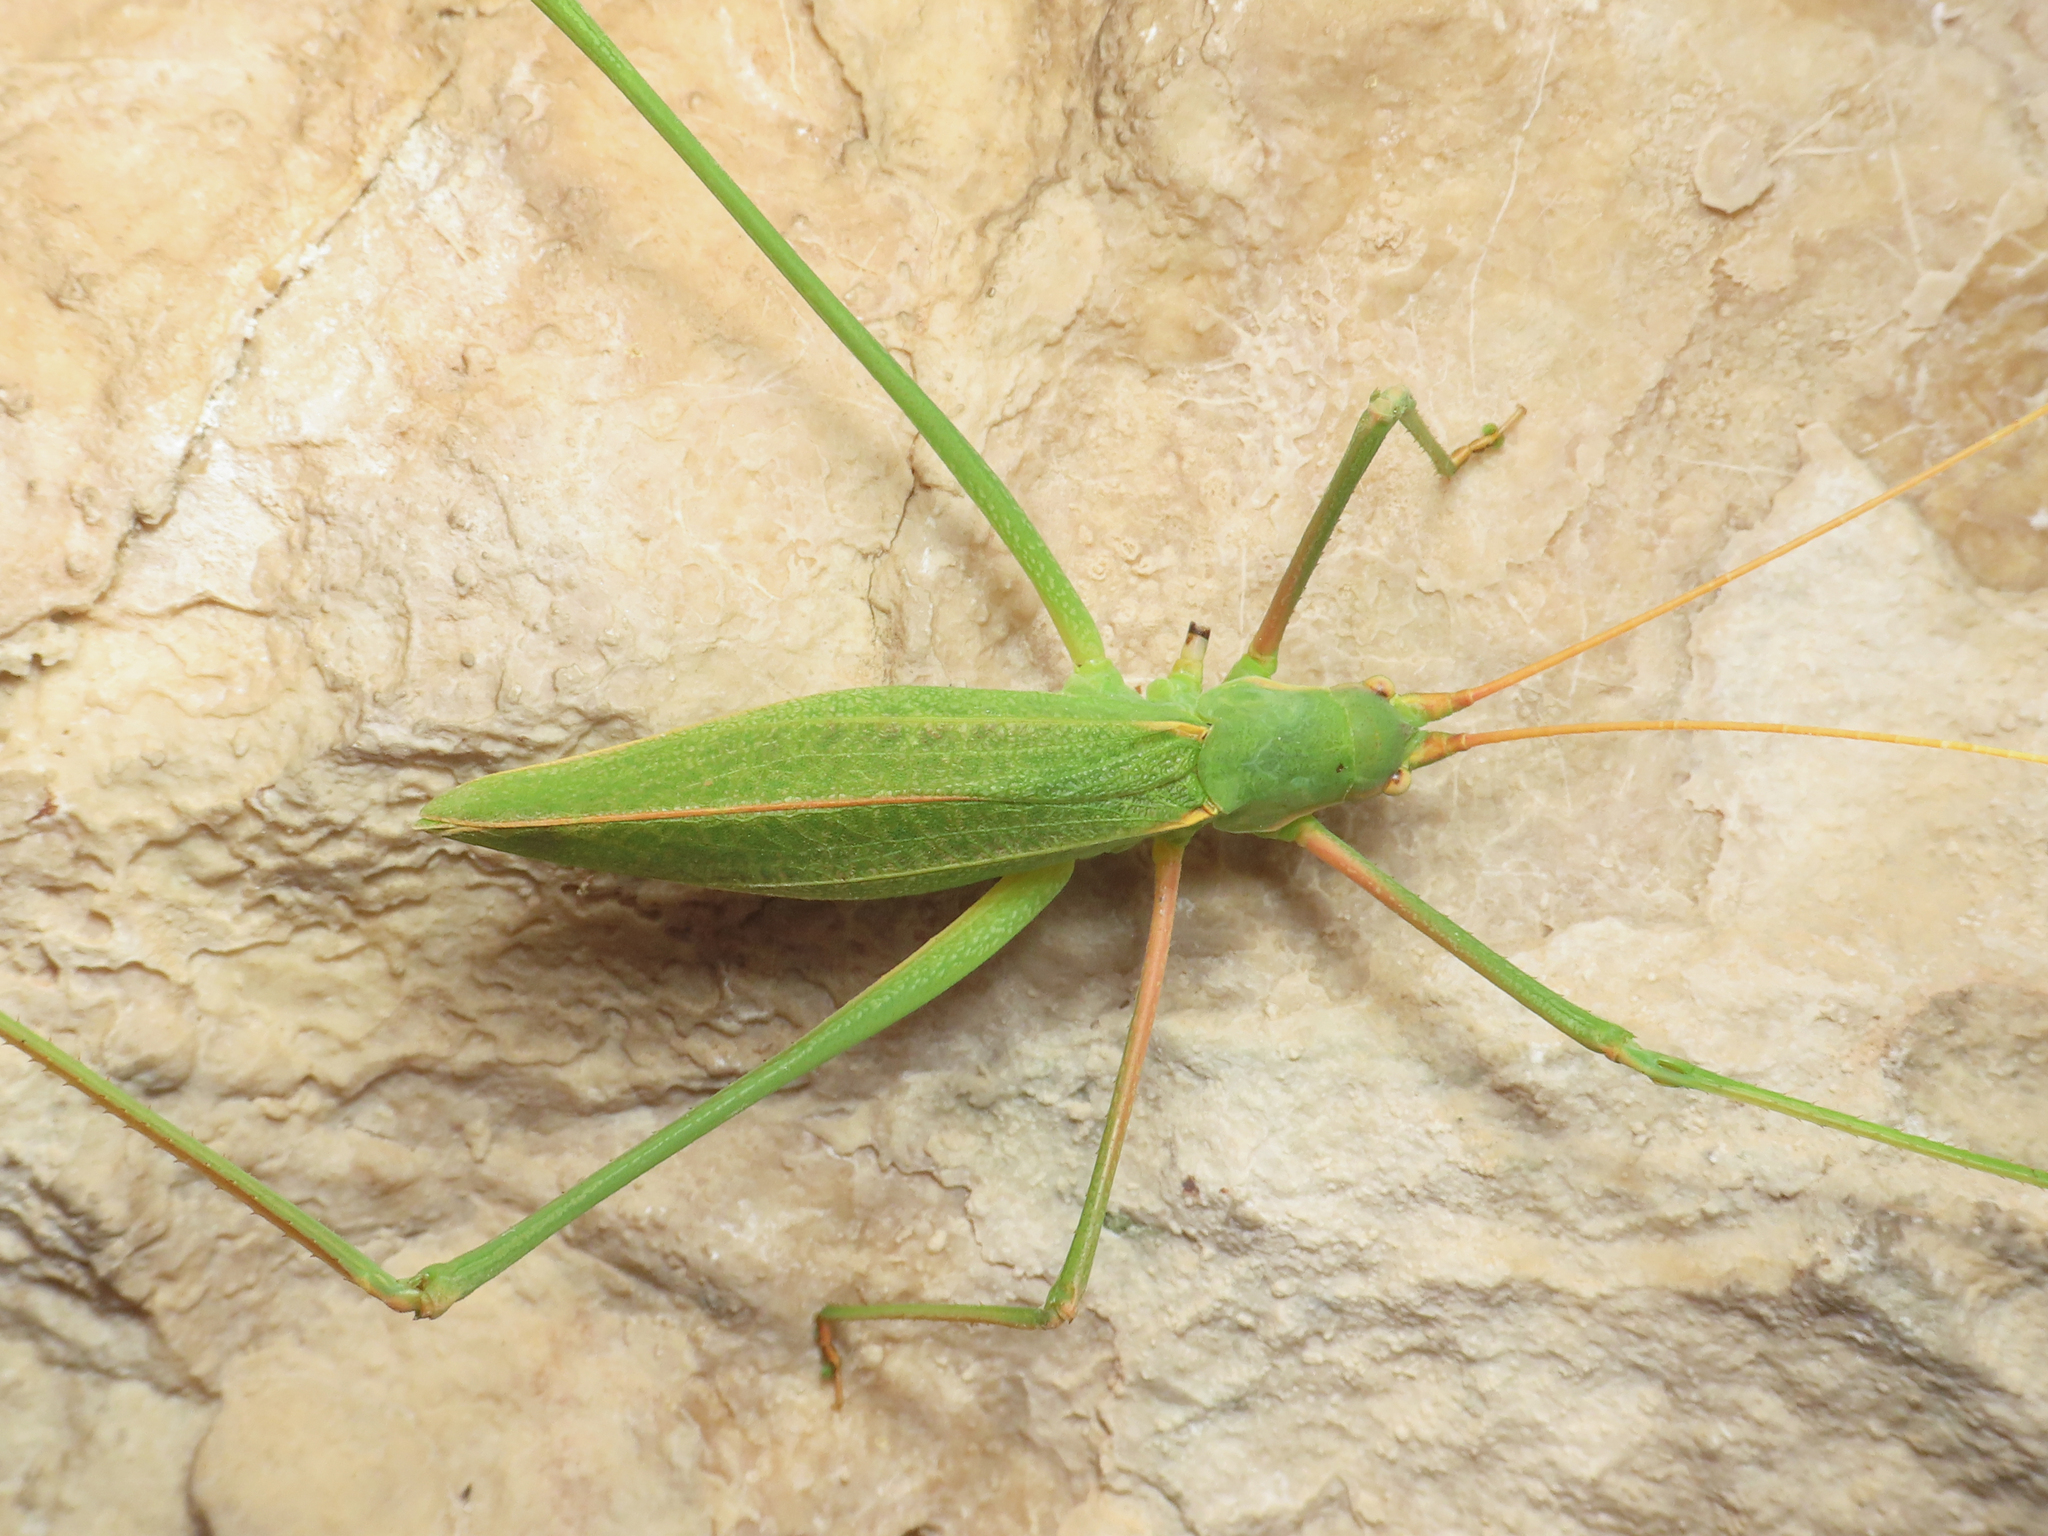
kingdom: Animalia
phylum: Arthropoda
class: Insecta
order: Orthoptera
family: Tettigoniidae
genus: Acrometopa
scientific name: Acrometopa macropoda
